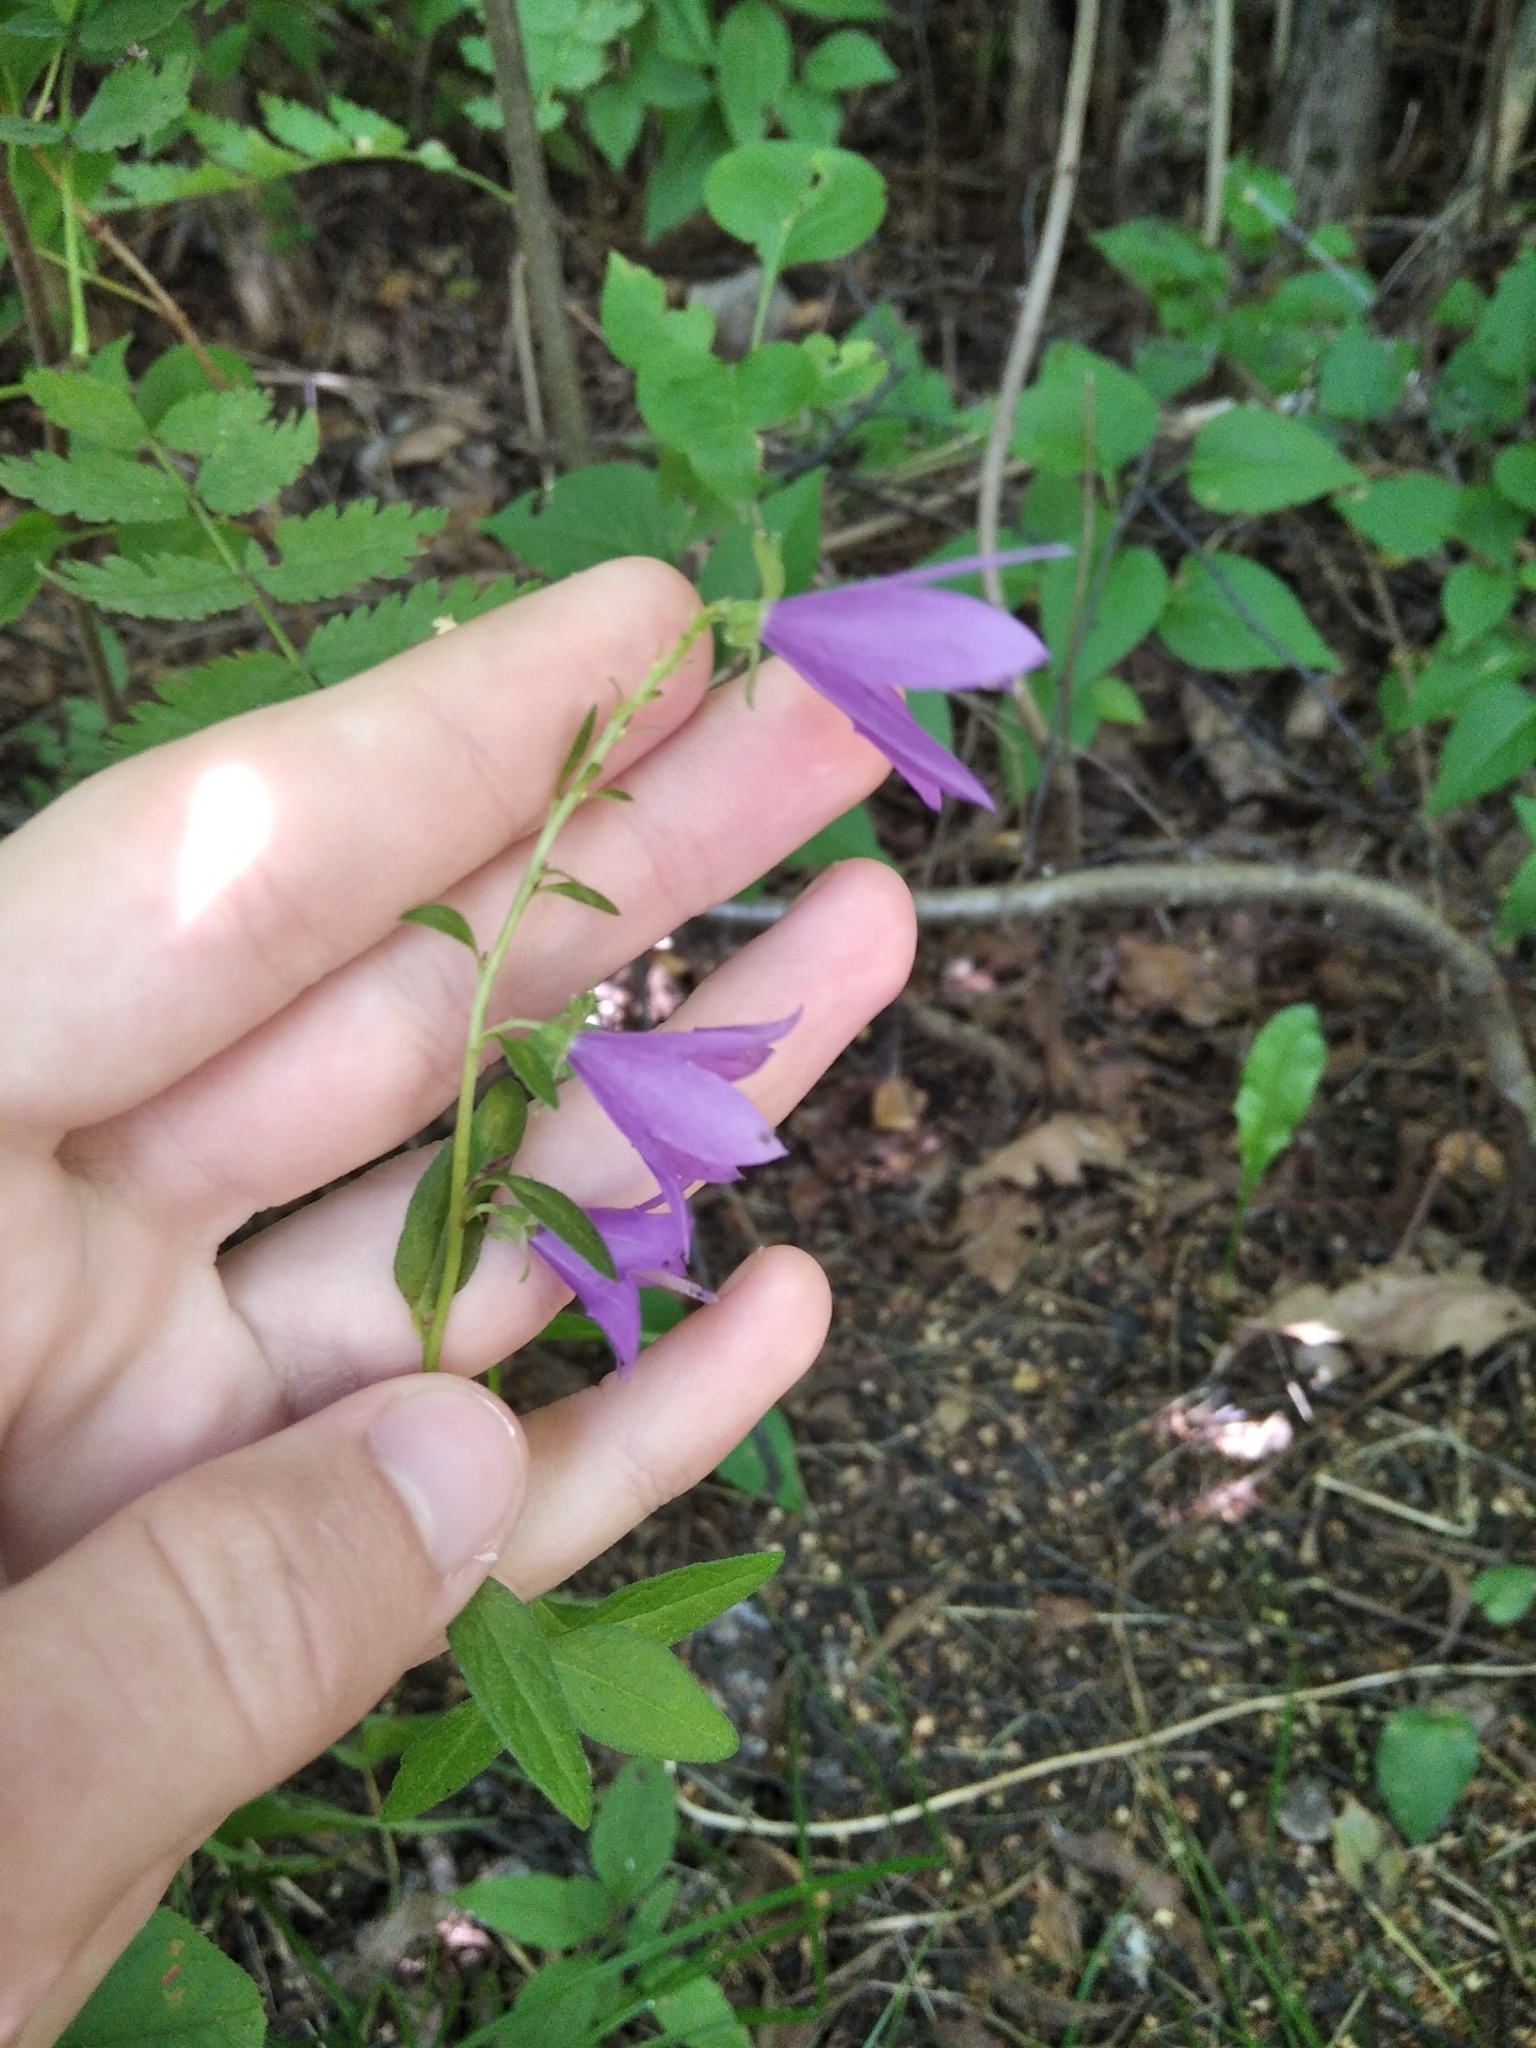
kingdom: Plantae
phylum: Tracheophyta
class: Magnoliopsida
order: Asterales
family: Campanulaceae
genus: Campanula
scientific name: Campanula rapunculoides
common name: Creeping bellflower
